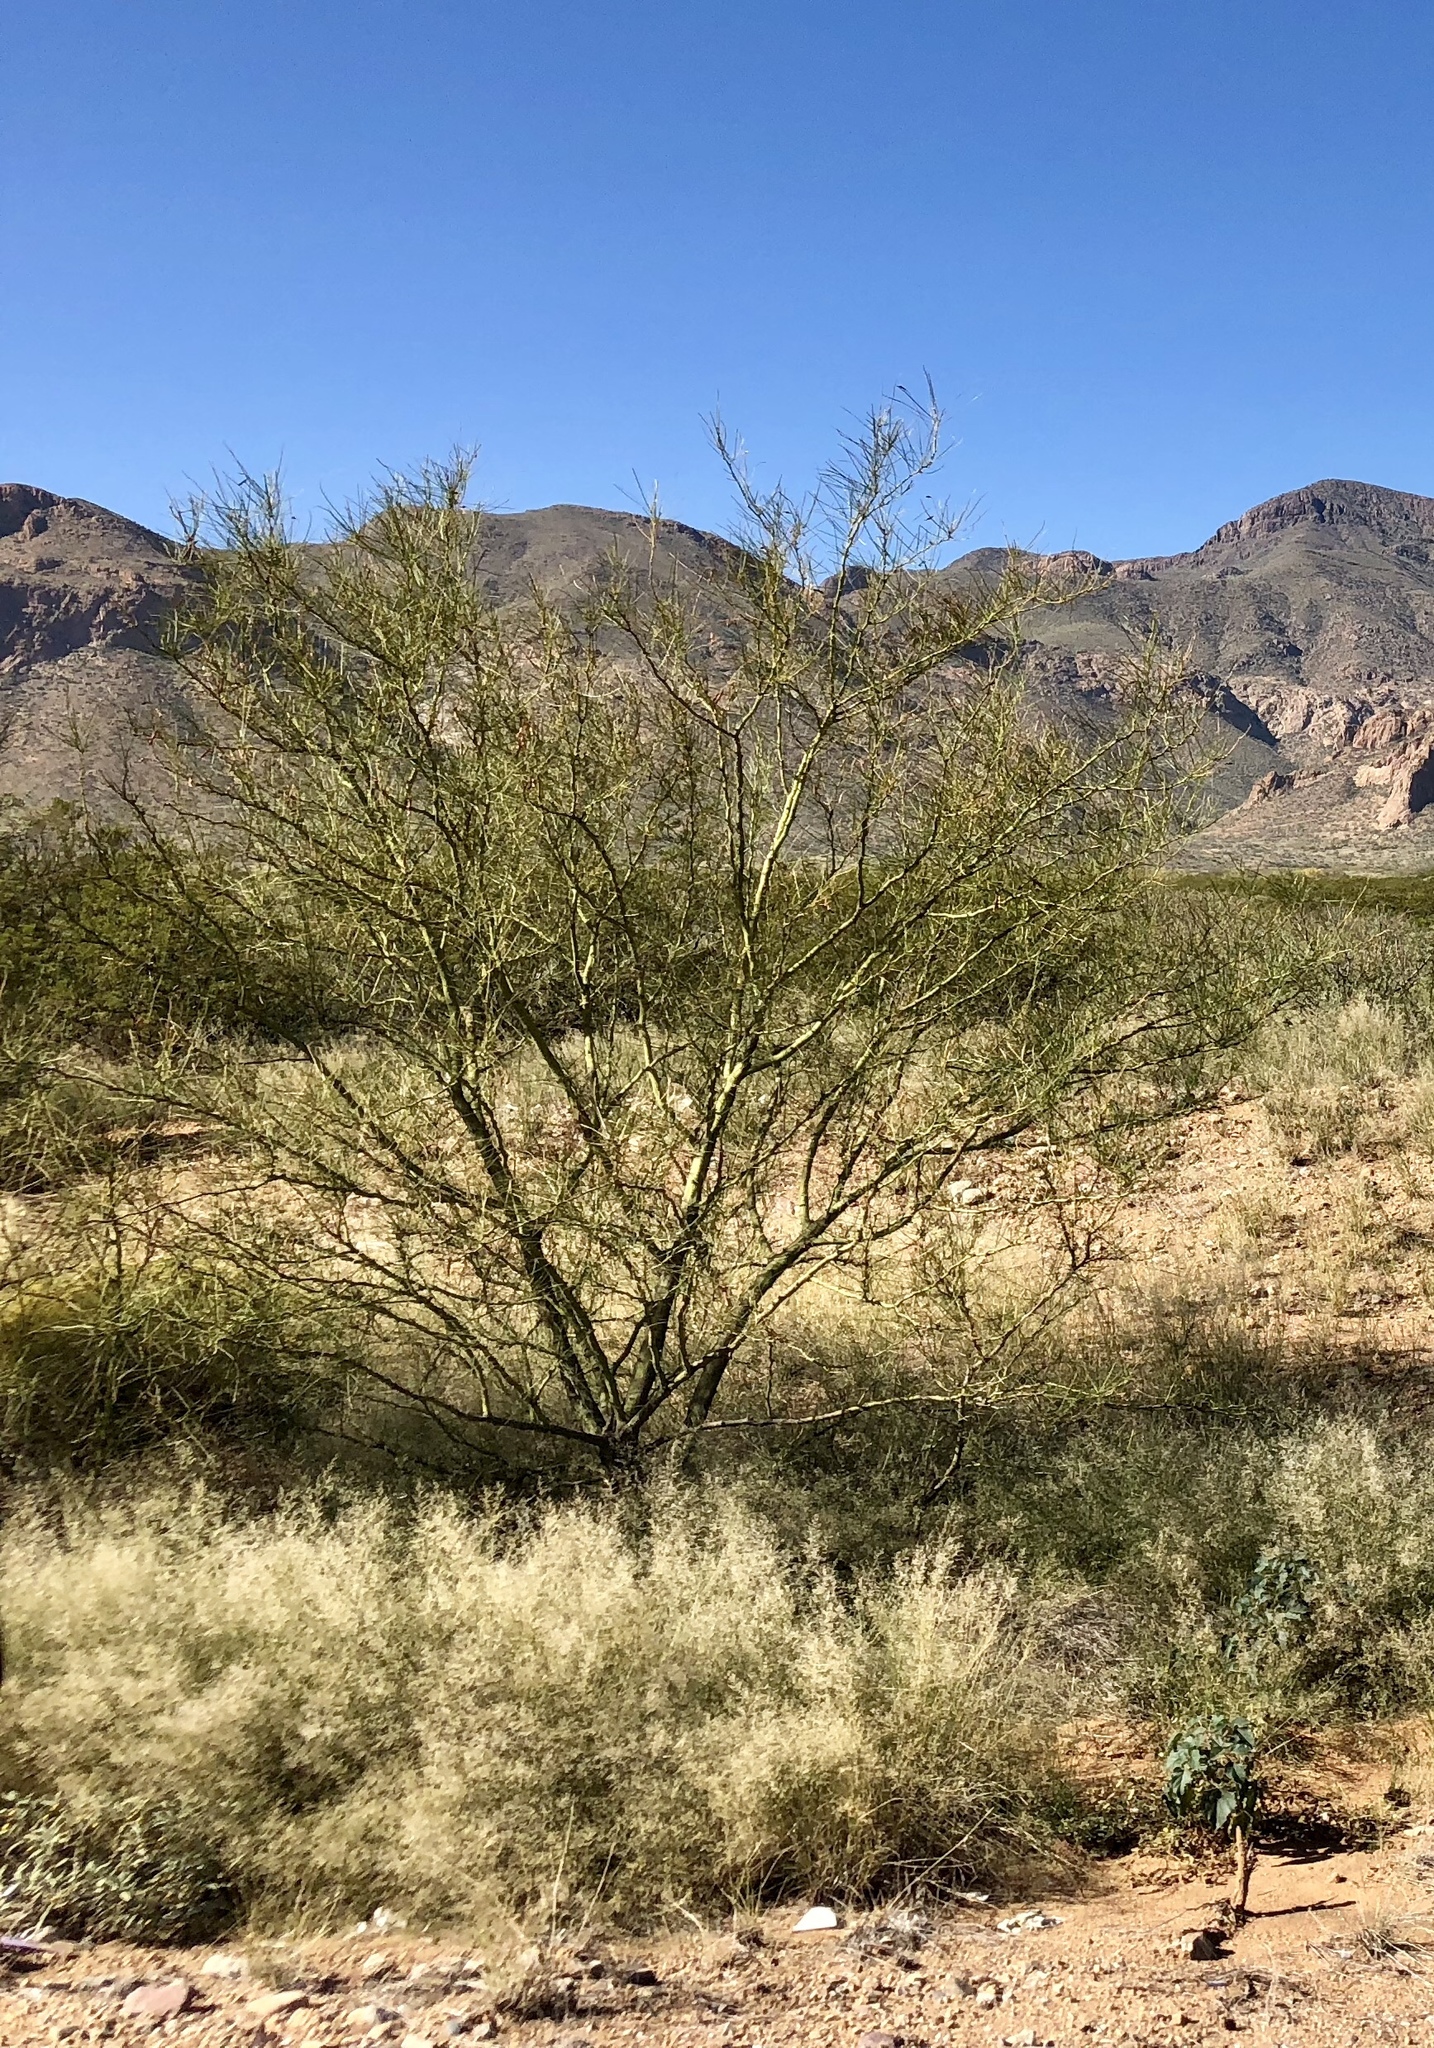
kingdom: Plantae
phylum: Tracheophyta
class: Magnoliopsida
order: Fabales
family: Fabaceae
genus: Parkinsonia
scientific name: Parkinsonia aculeata
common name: Jerusalem thorn
